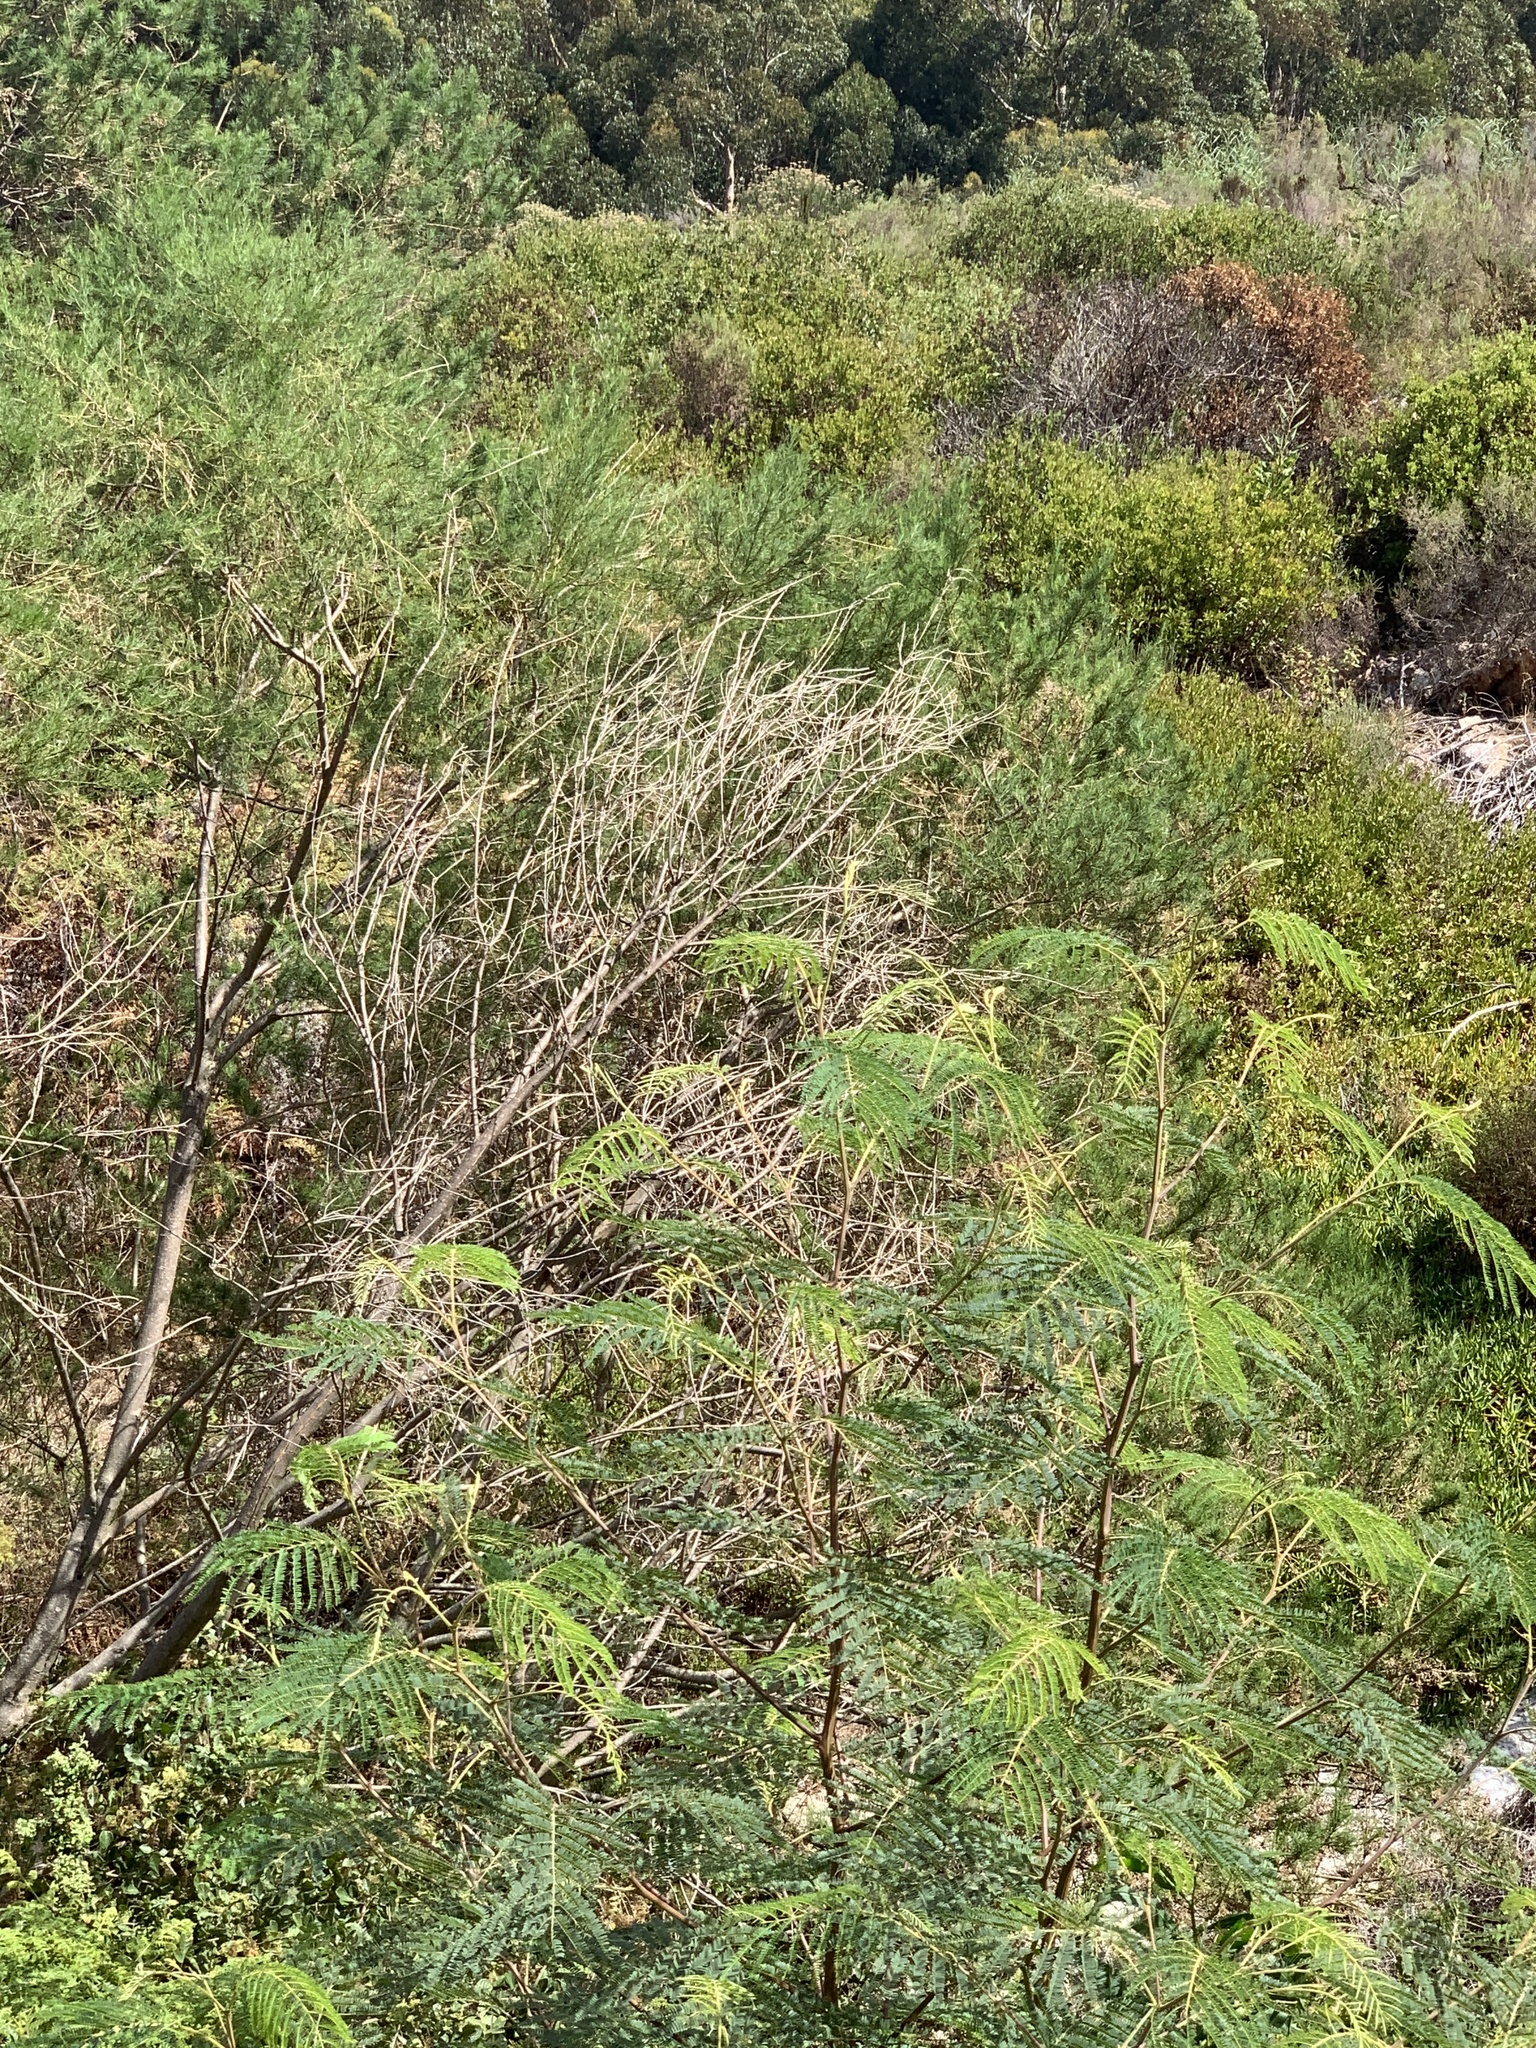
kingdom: Plantae
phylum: Tracheophyta
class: Magnoliopsida
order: Fabales
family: Fabaceae
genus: Paraserianthes
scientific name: Paraserianthes lophantha
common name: Plume albizia
